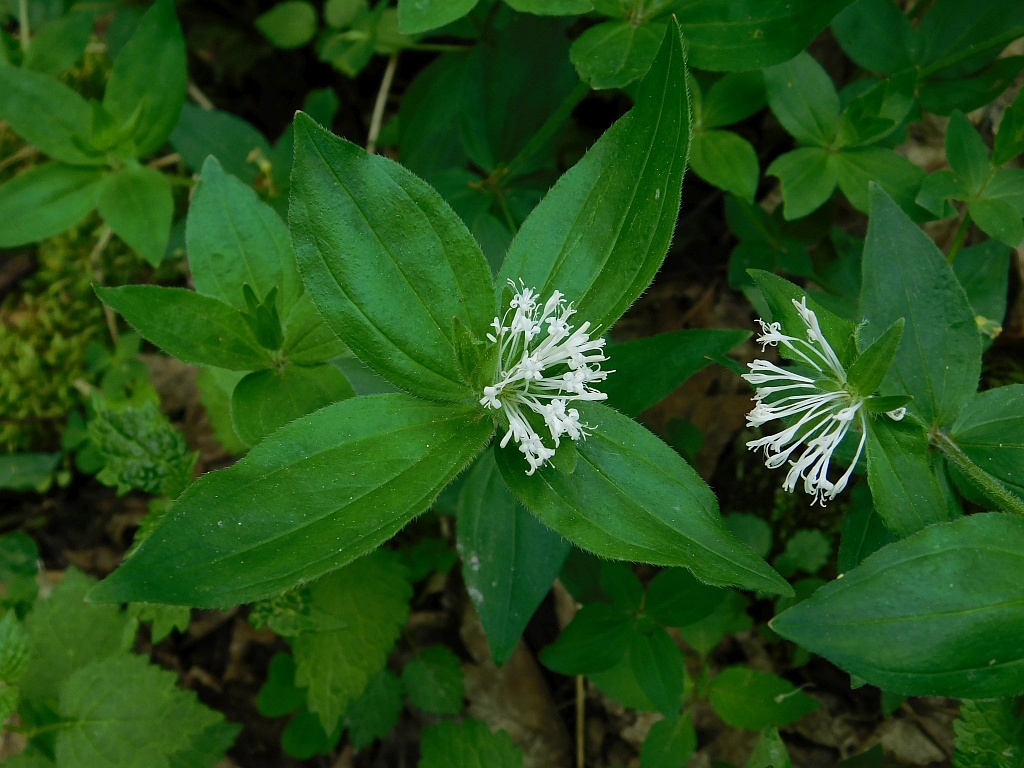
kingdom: Plantae
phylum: Tracheophyta
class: Magnoliopsida
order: Gentianales
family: Rubiaceae
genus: Asperula
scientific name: Asperula taurina
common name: Pink woodruff
